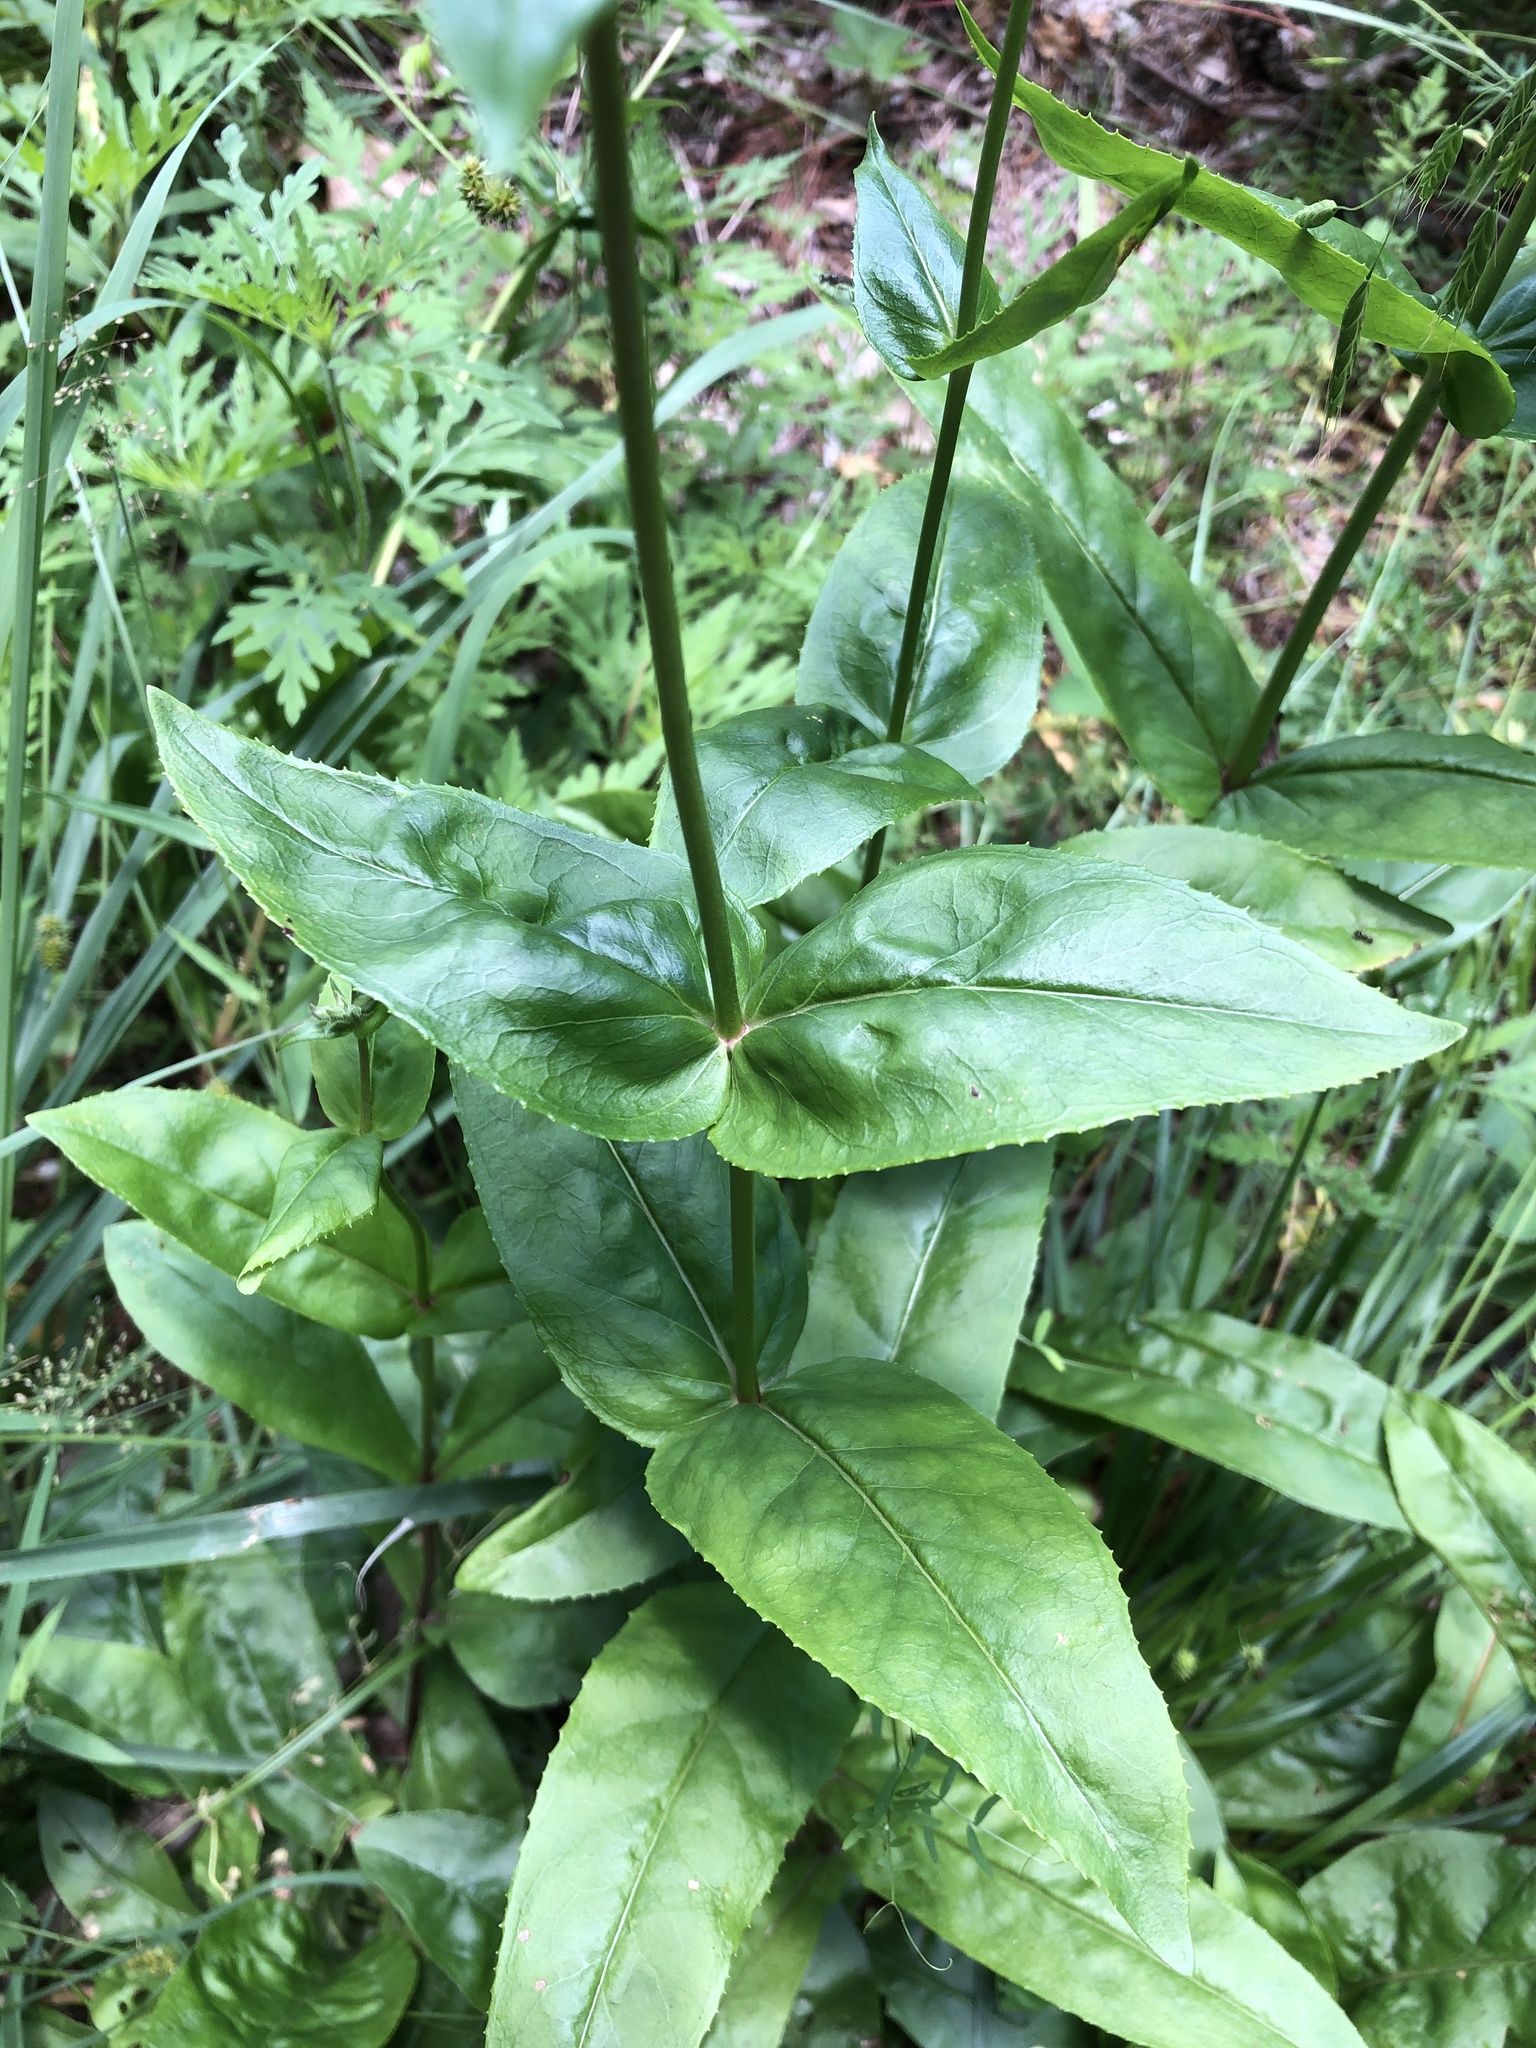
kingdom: Plantae
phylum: Tracheophyta
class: Magnoliopsida
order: Lamiales
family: Plantaginaceae
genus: Penstemon
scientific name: Penstemon digitalis
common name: Foxglove beardtongue
